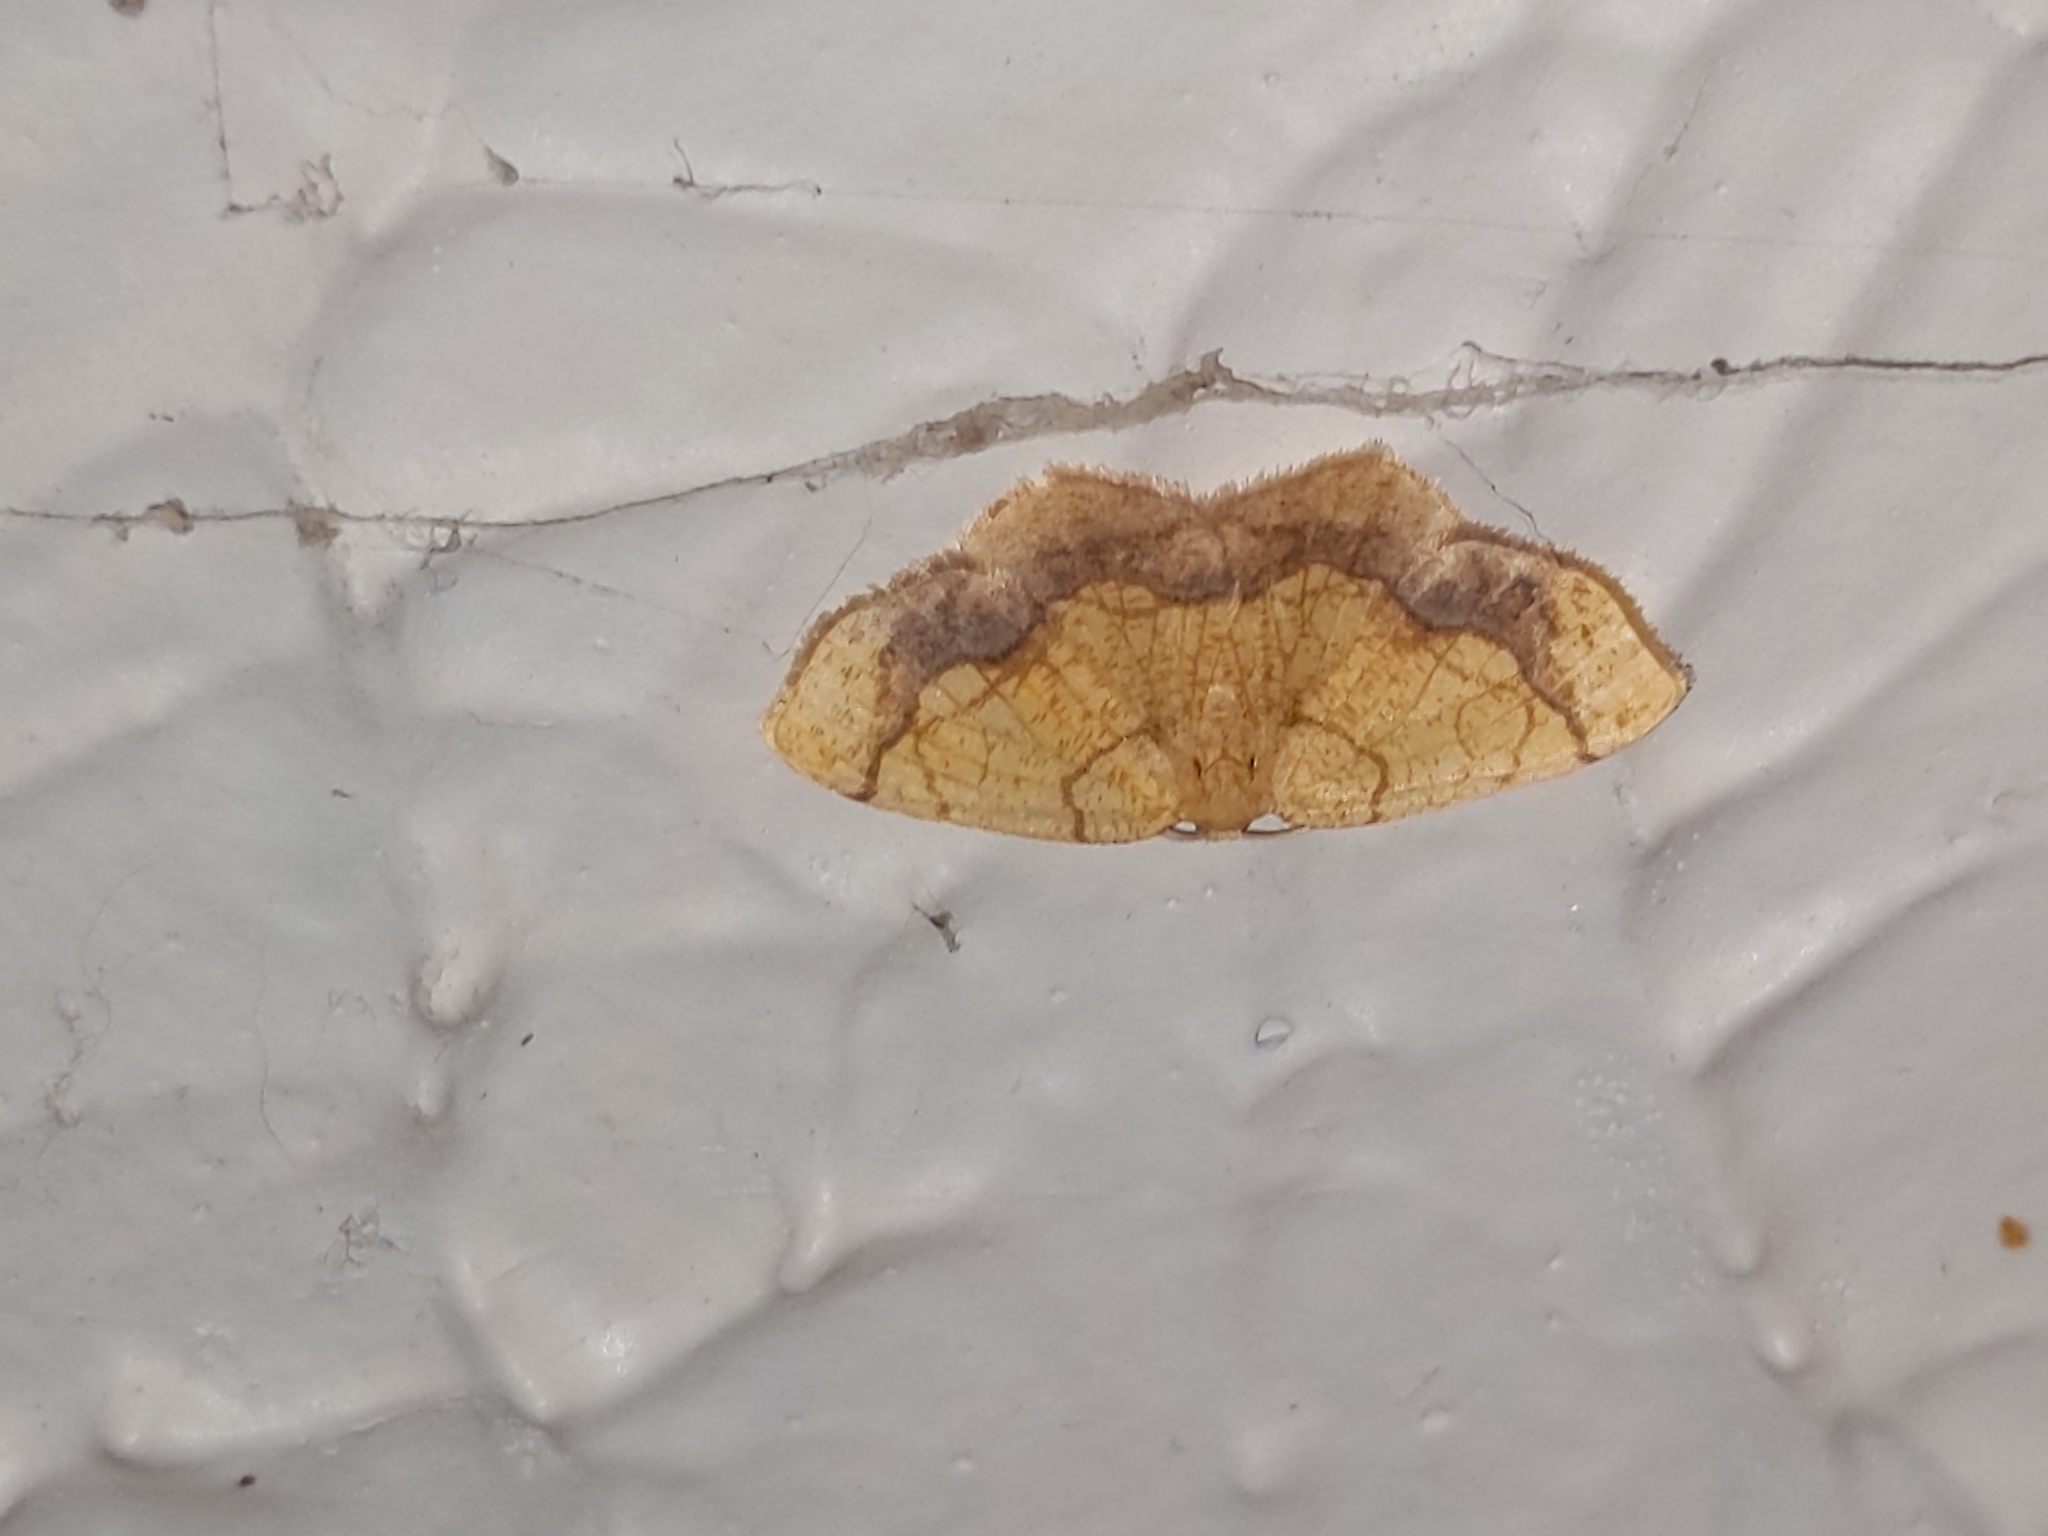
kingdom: Animalia
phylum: Arthropoda
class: Insecta
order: Lepidoptera
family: Geometridae
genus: Nematocampa
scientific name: Nematocampa resistaria
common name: Horned spanworm moth
